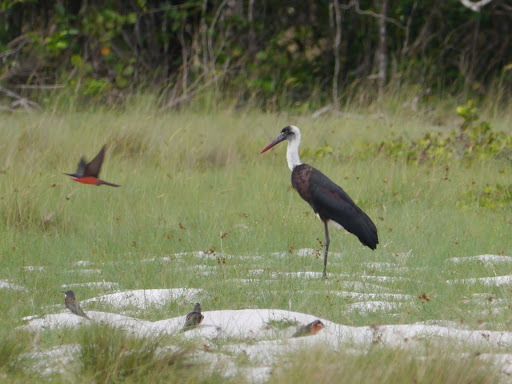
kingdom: Animalia
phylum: Chordata
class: Aves
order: Ciconiiformes
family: Ciconiidae
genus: Ciconia
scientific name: Ciconia microscelis
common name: African woollyneck
